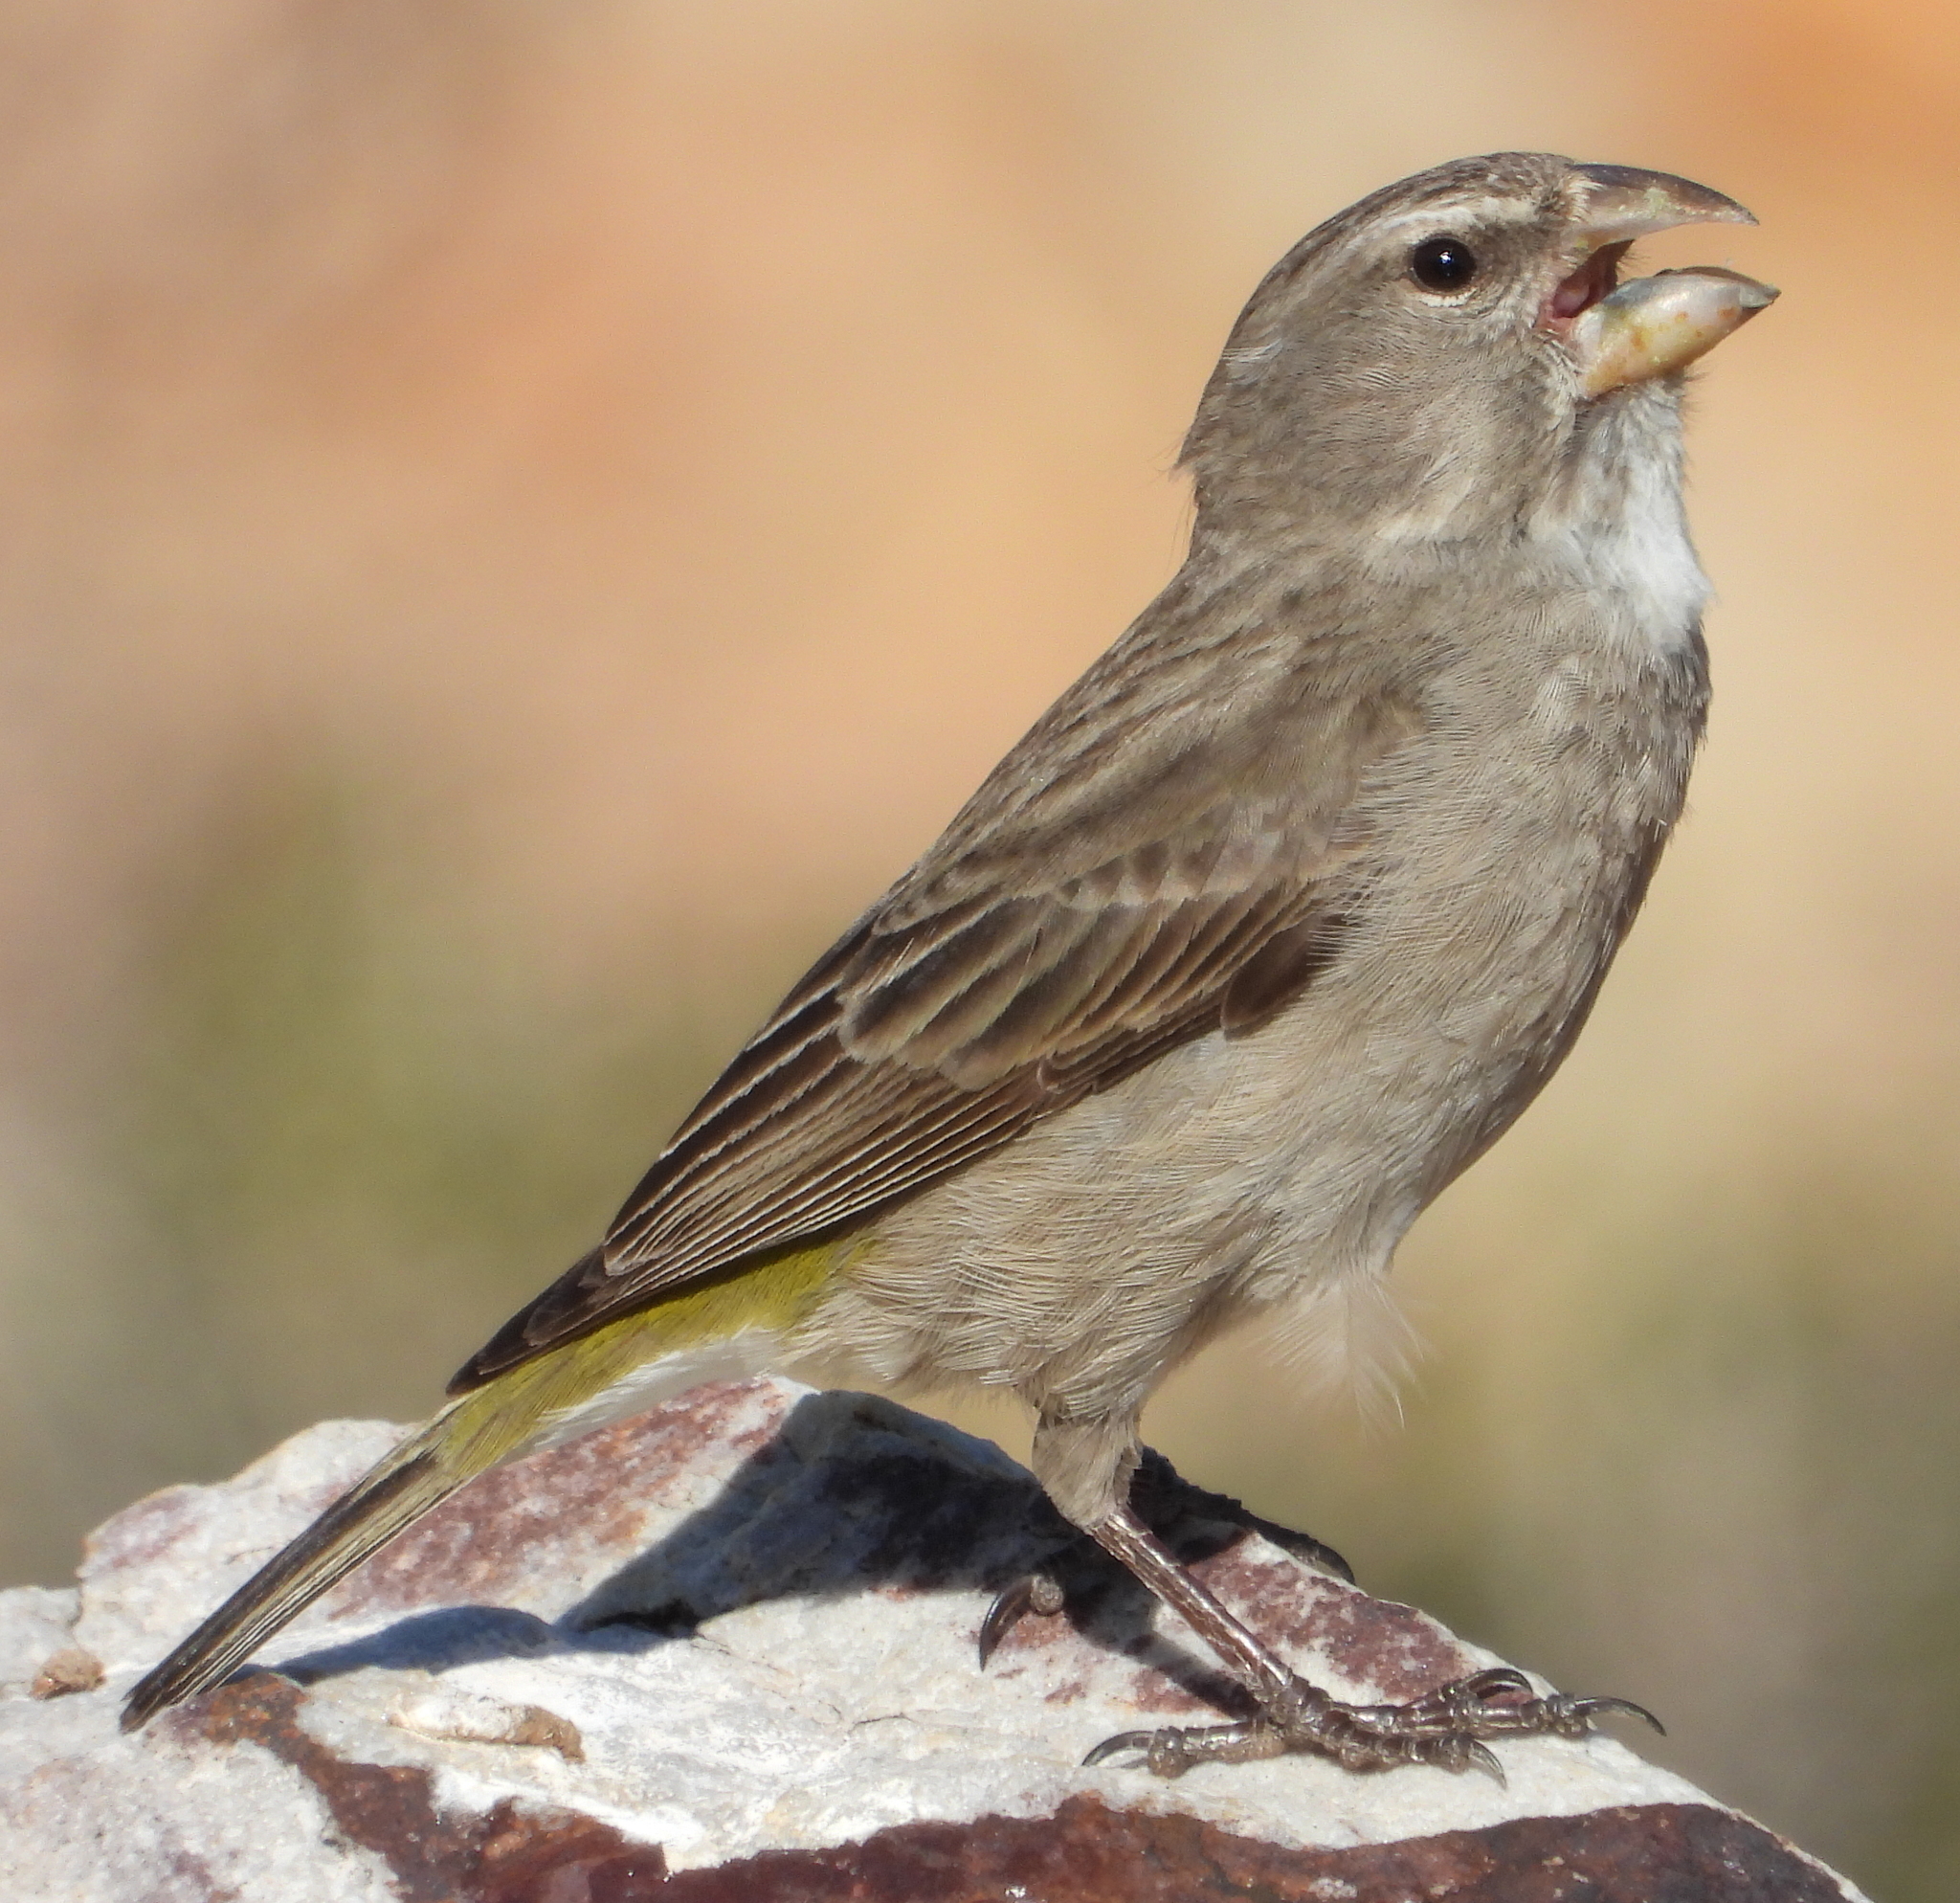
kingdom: Animalia
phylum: Chordata
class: Aves
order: Passeriformes
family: Fringillidae
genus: Crithagra
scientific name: Crithagra albogularis
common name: White-throated canary
